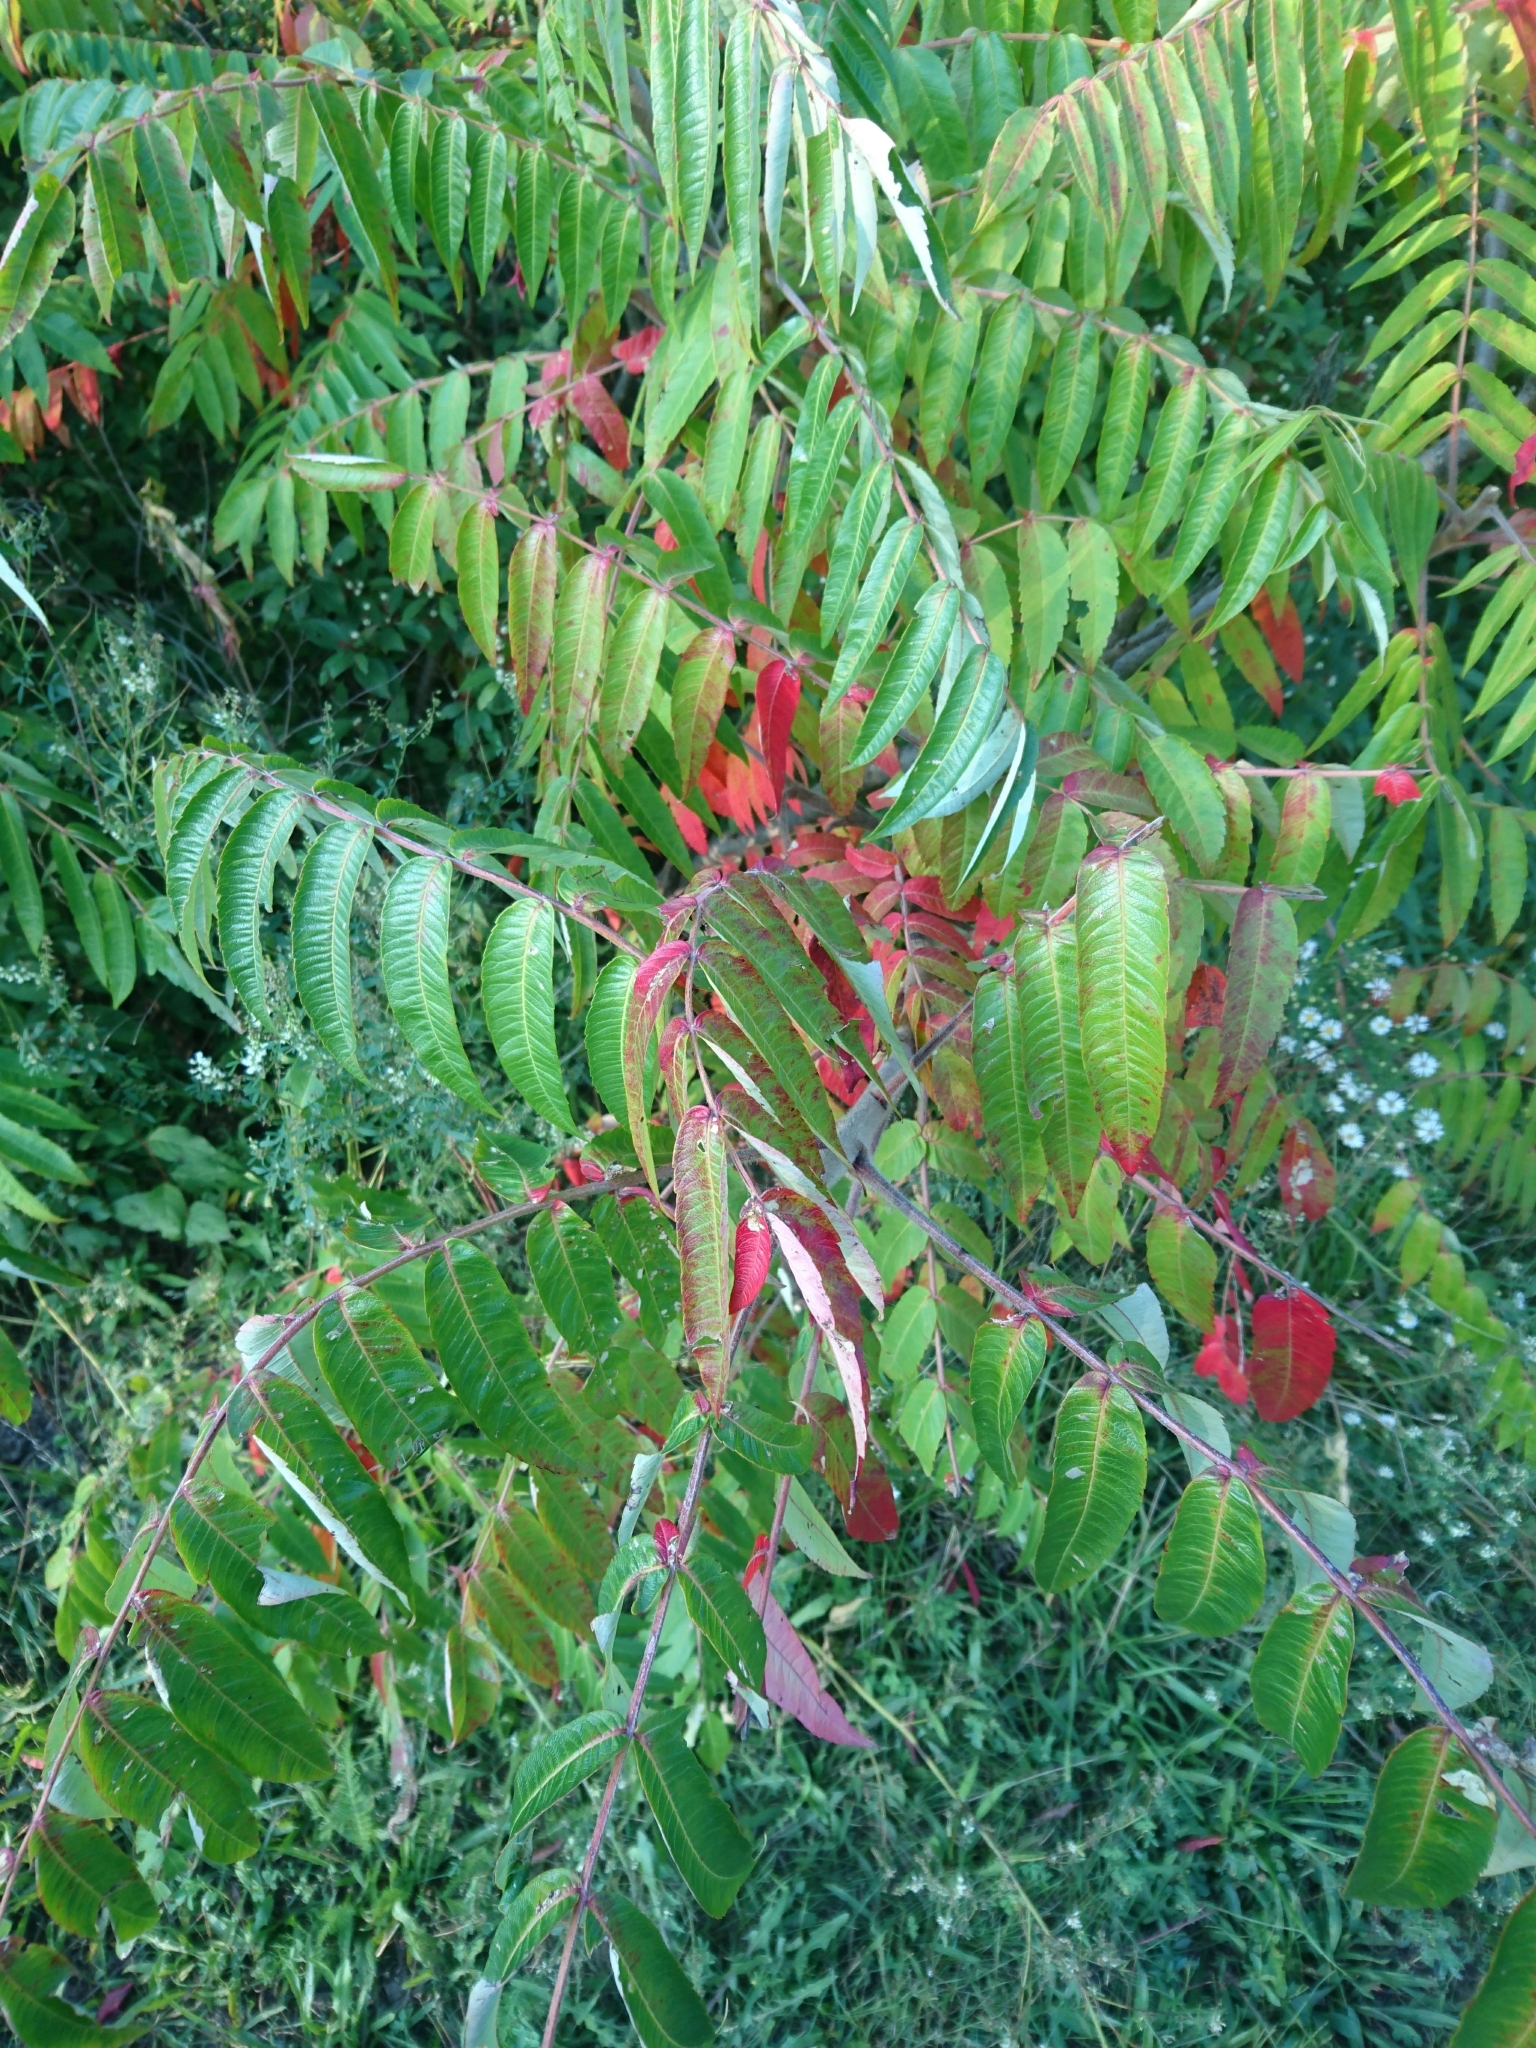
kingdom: Plantae
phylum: Tracheophyta
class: Magnoliopsida
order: Sapindales
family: Anacardiaceae
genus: Rhus
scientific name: Rhus typhina
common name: Staghorn sumac
